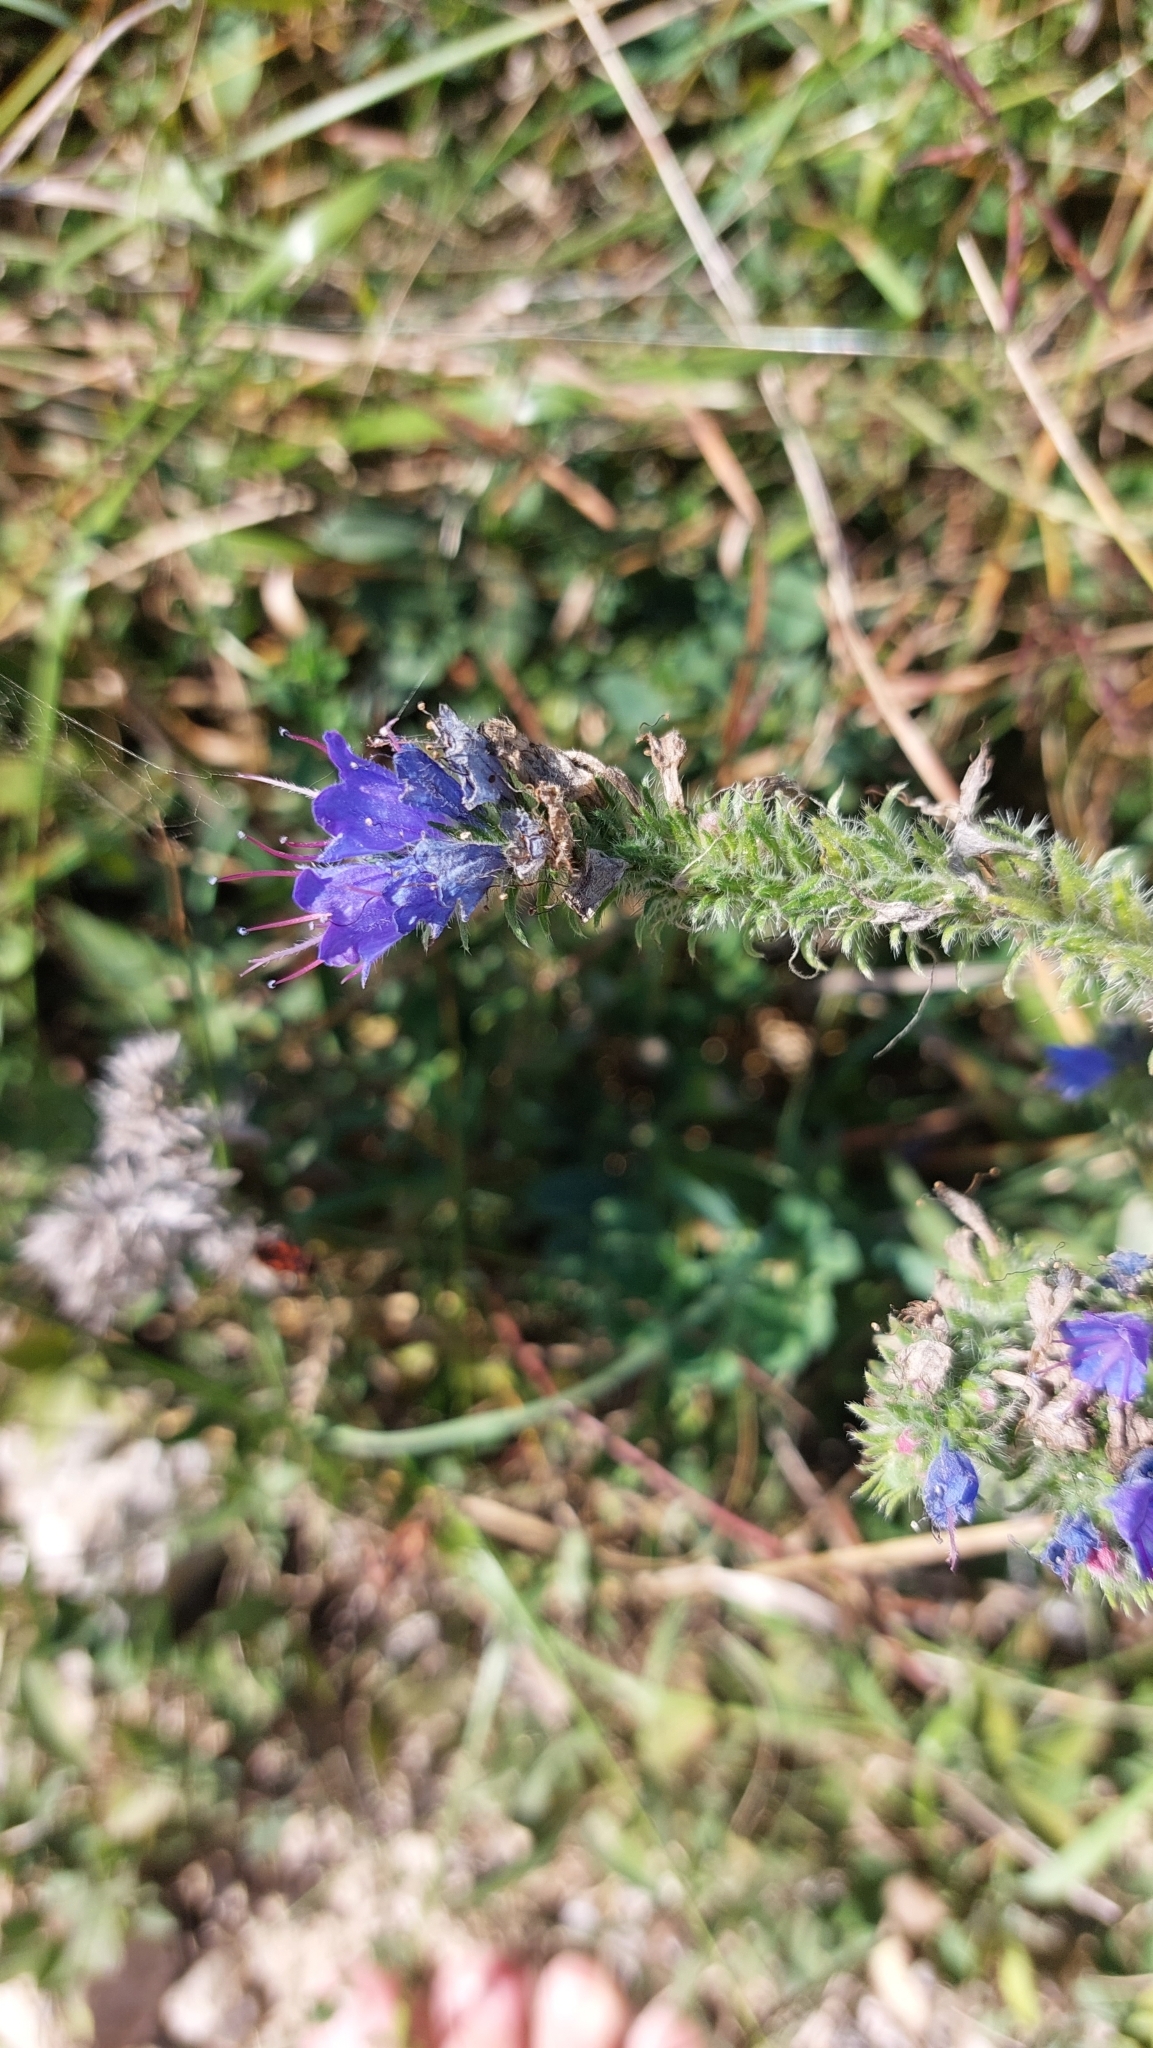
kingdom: Plantae
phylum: Tracheophyta
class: Magnoliopsida
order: Boraginales
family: Boraginaceae
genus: Echium
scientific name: Echium vulgare
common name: Common viper's bugloss
